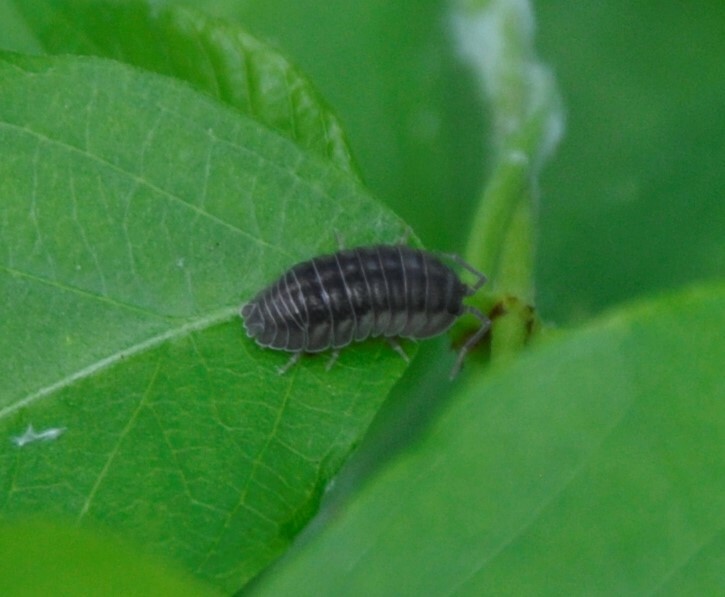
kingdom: Animalia
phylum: Arthropoda
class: Malacostraca
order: Isopoda
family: Armadillidiidae
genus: Armadillidium
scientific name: Armadillidium nasatum
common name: Isopod
